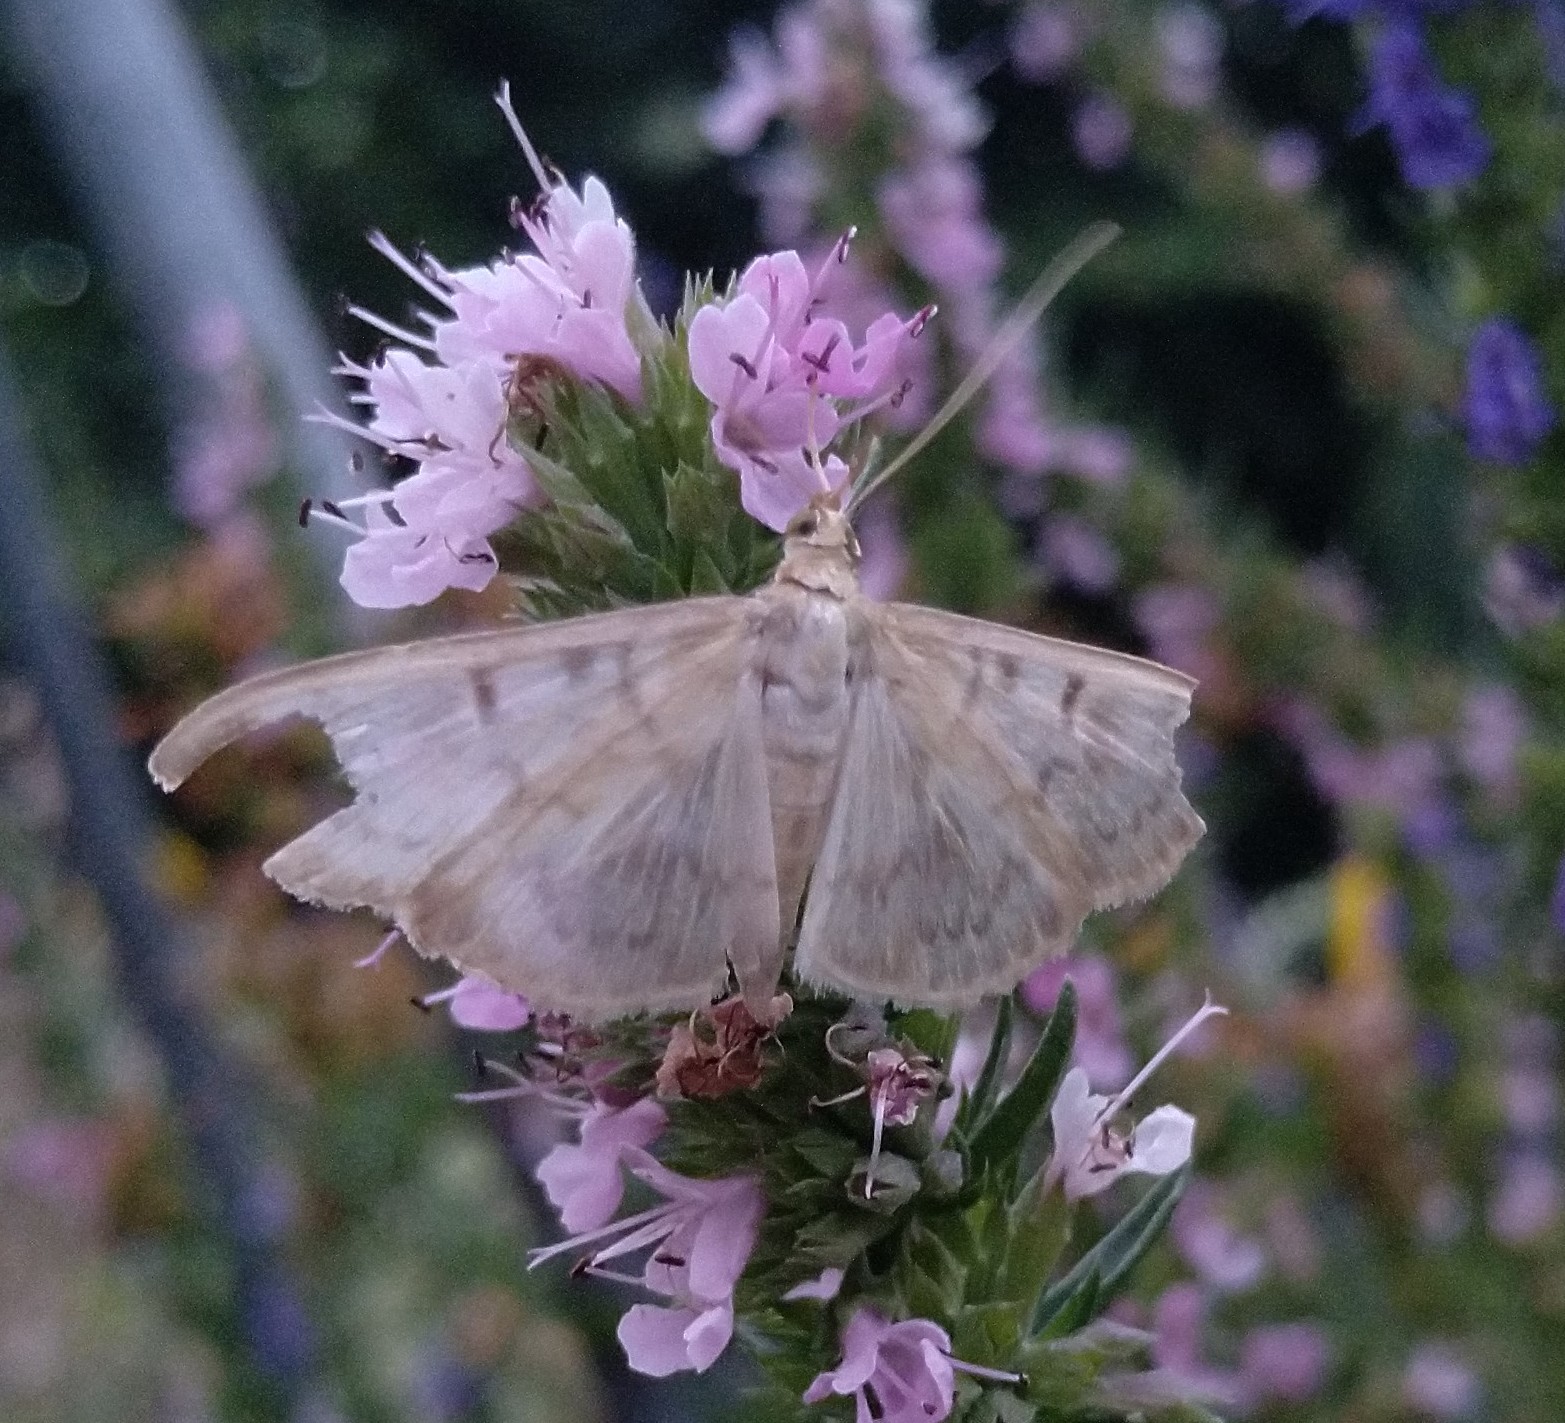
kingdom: Animalia
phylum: Arthropoda
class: Insecta
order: Lepidoptera
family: Crambidae
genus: Patania
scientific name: Patania ruralis
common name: Mother of pearl
